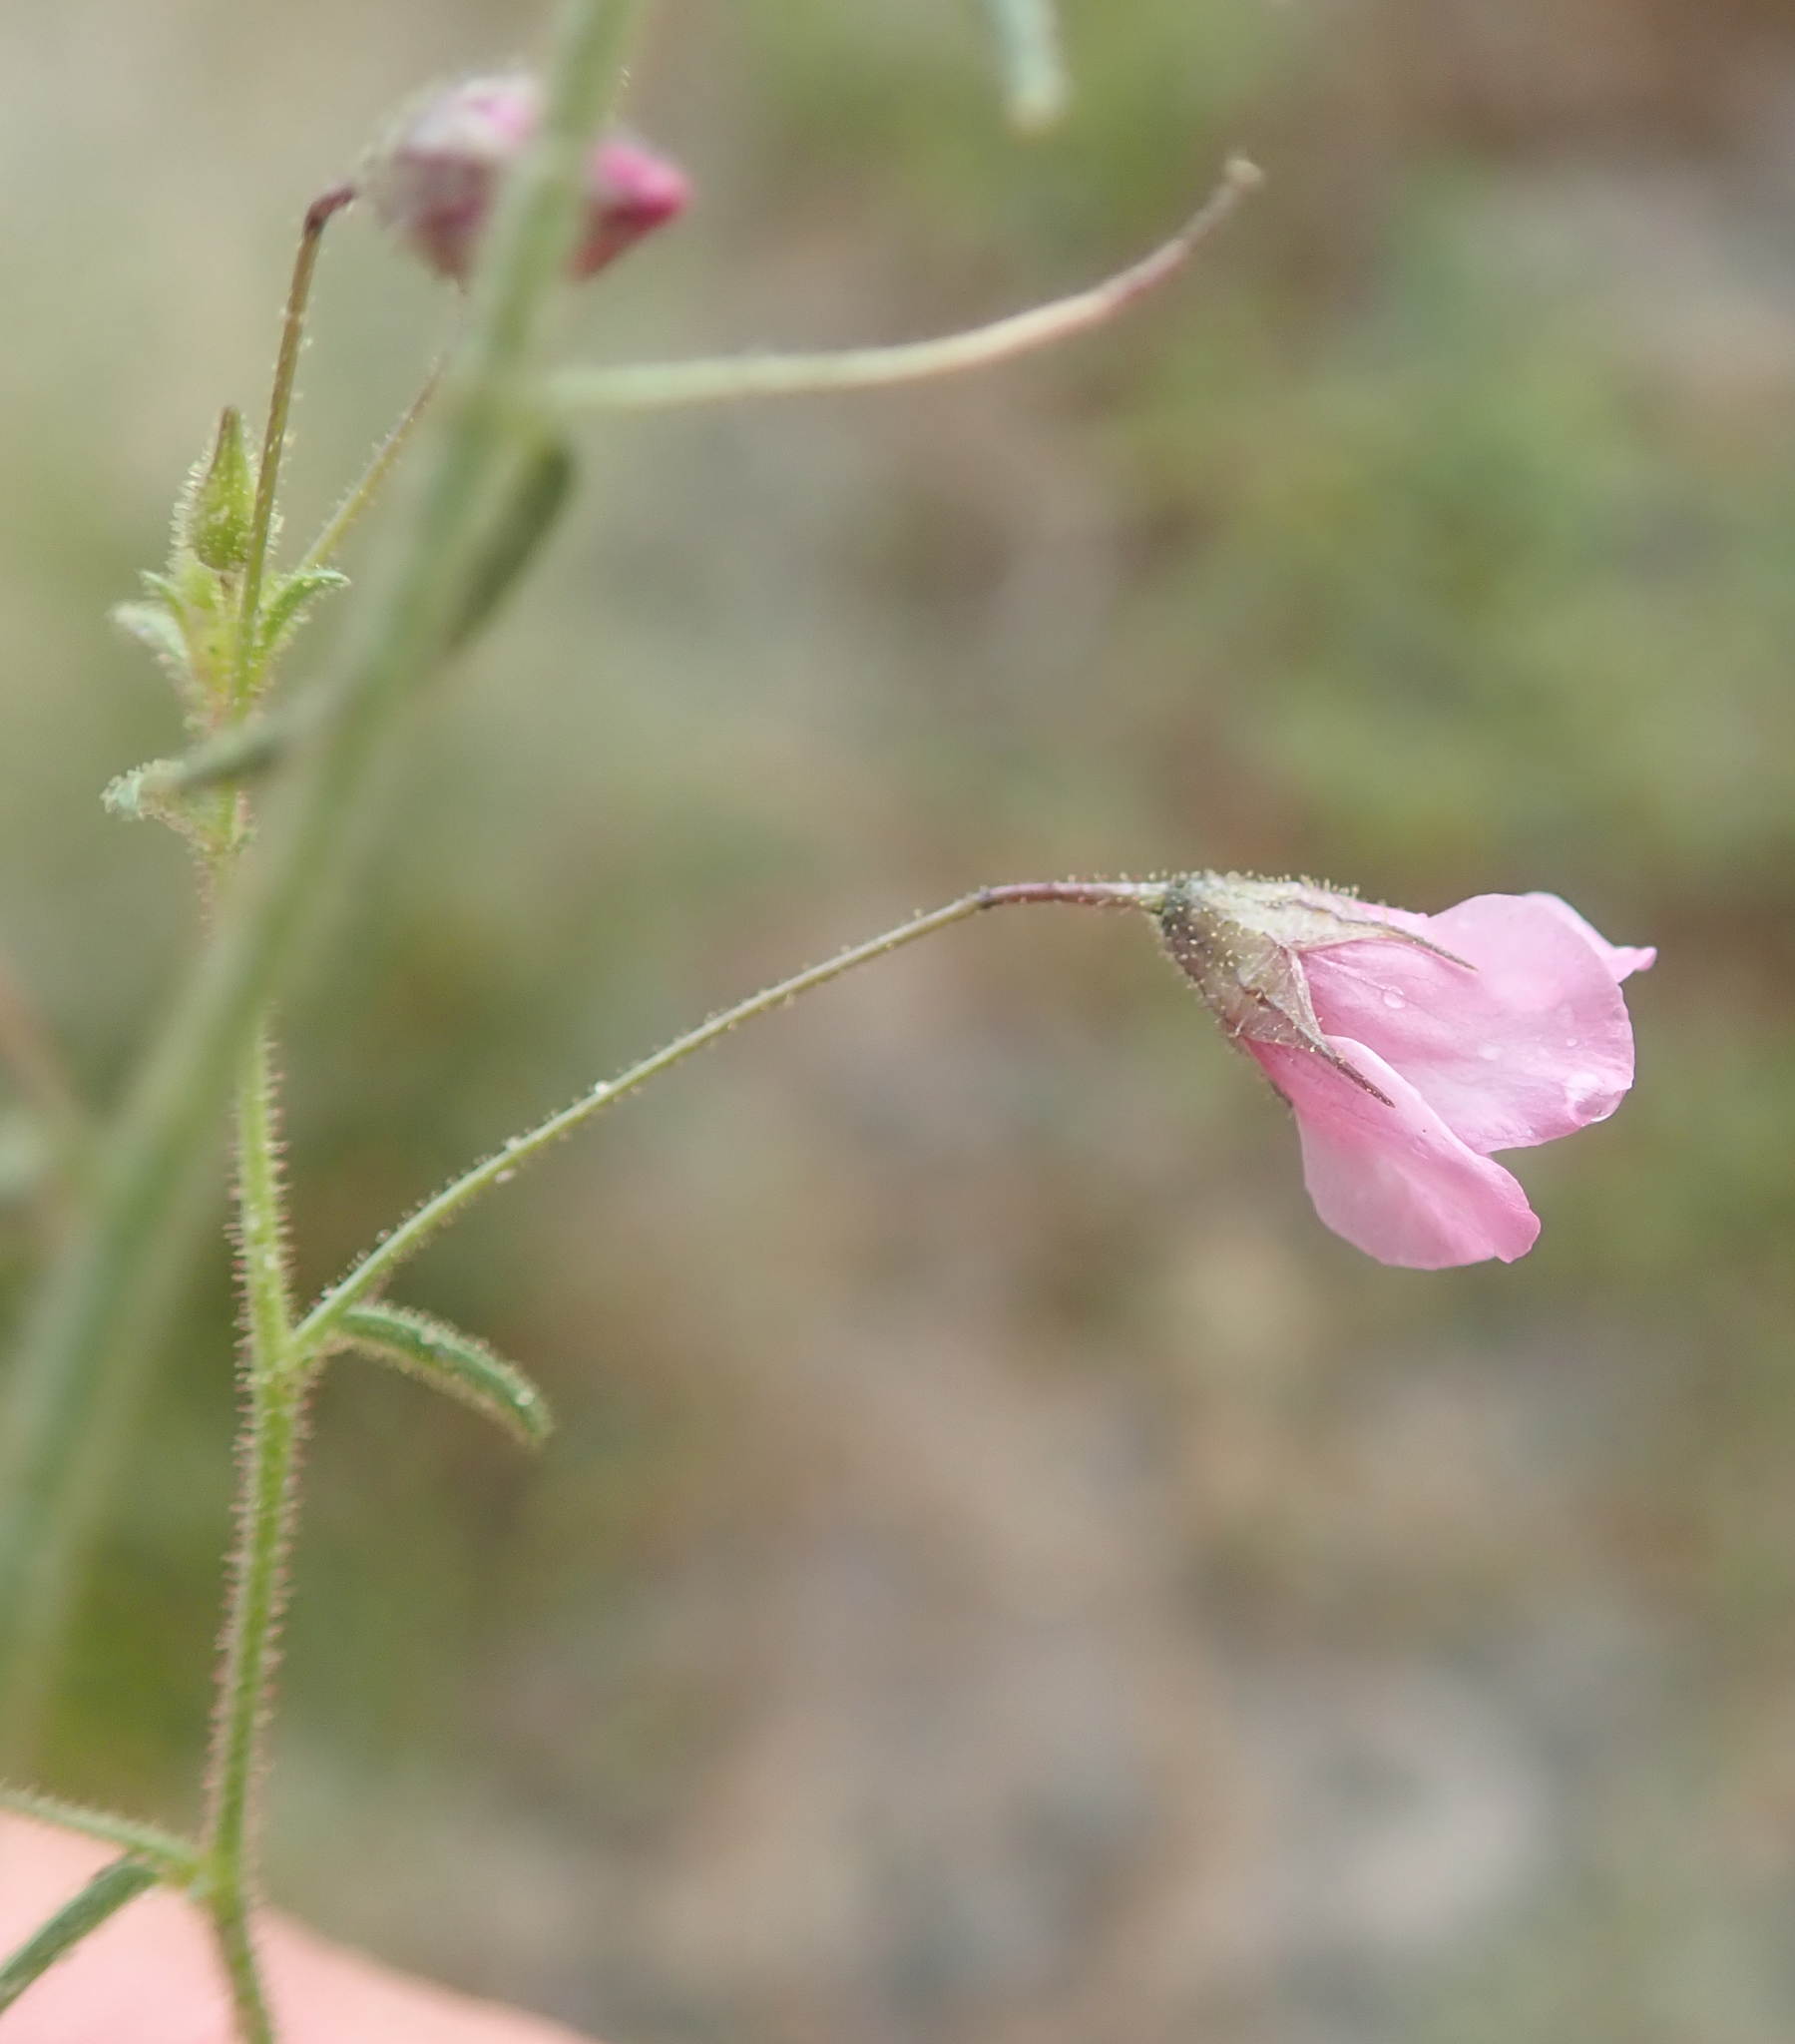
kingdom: Plantae
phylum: Tracheophyta
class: Magnoliopsida
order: Malvales
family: Malvaceae
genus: Hermannia
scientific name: Hermannia modesta
